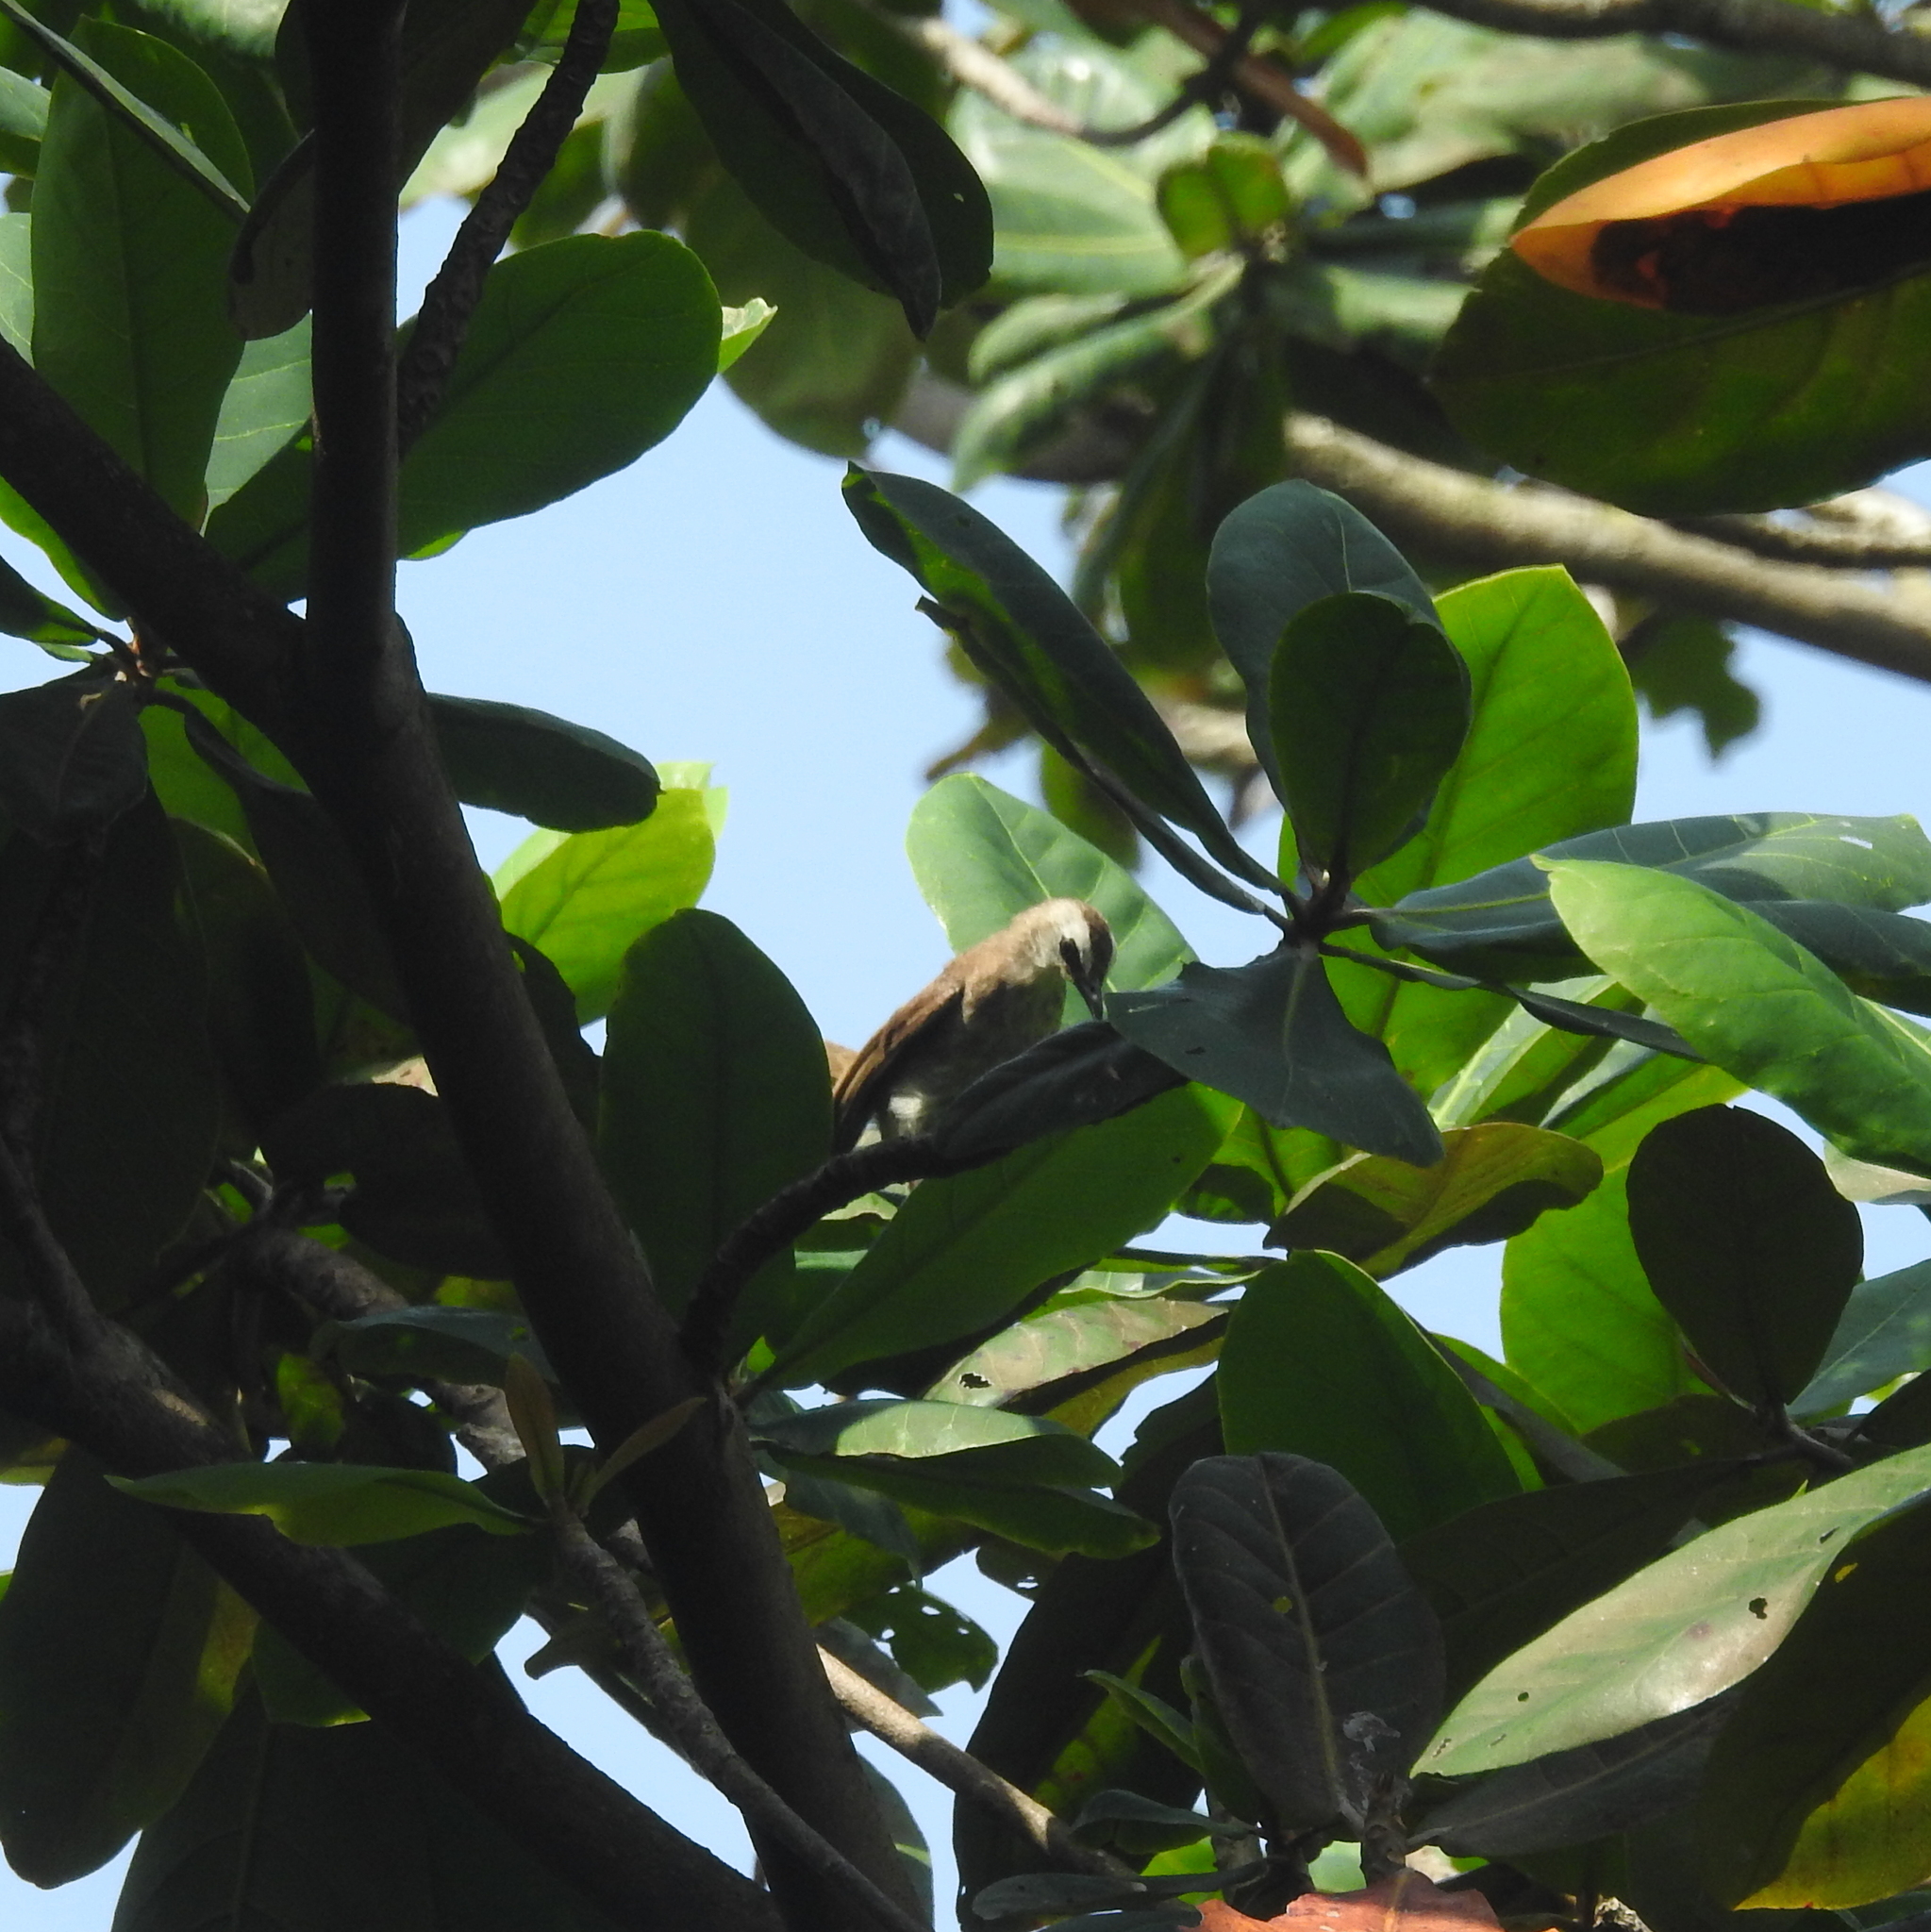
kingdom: Animalia
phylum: Chordata
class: Aves
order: Passeriformes
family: Pycnonotidae
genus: Pycnonotus
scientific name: Pycnonotus goiavier
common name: Yellow-vented bulbul
